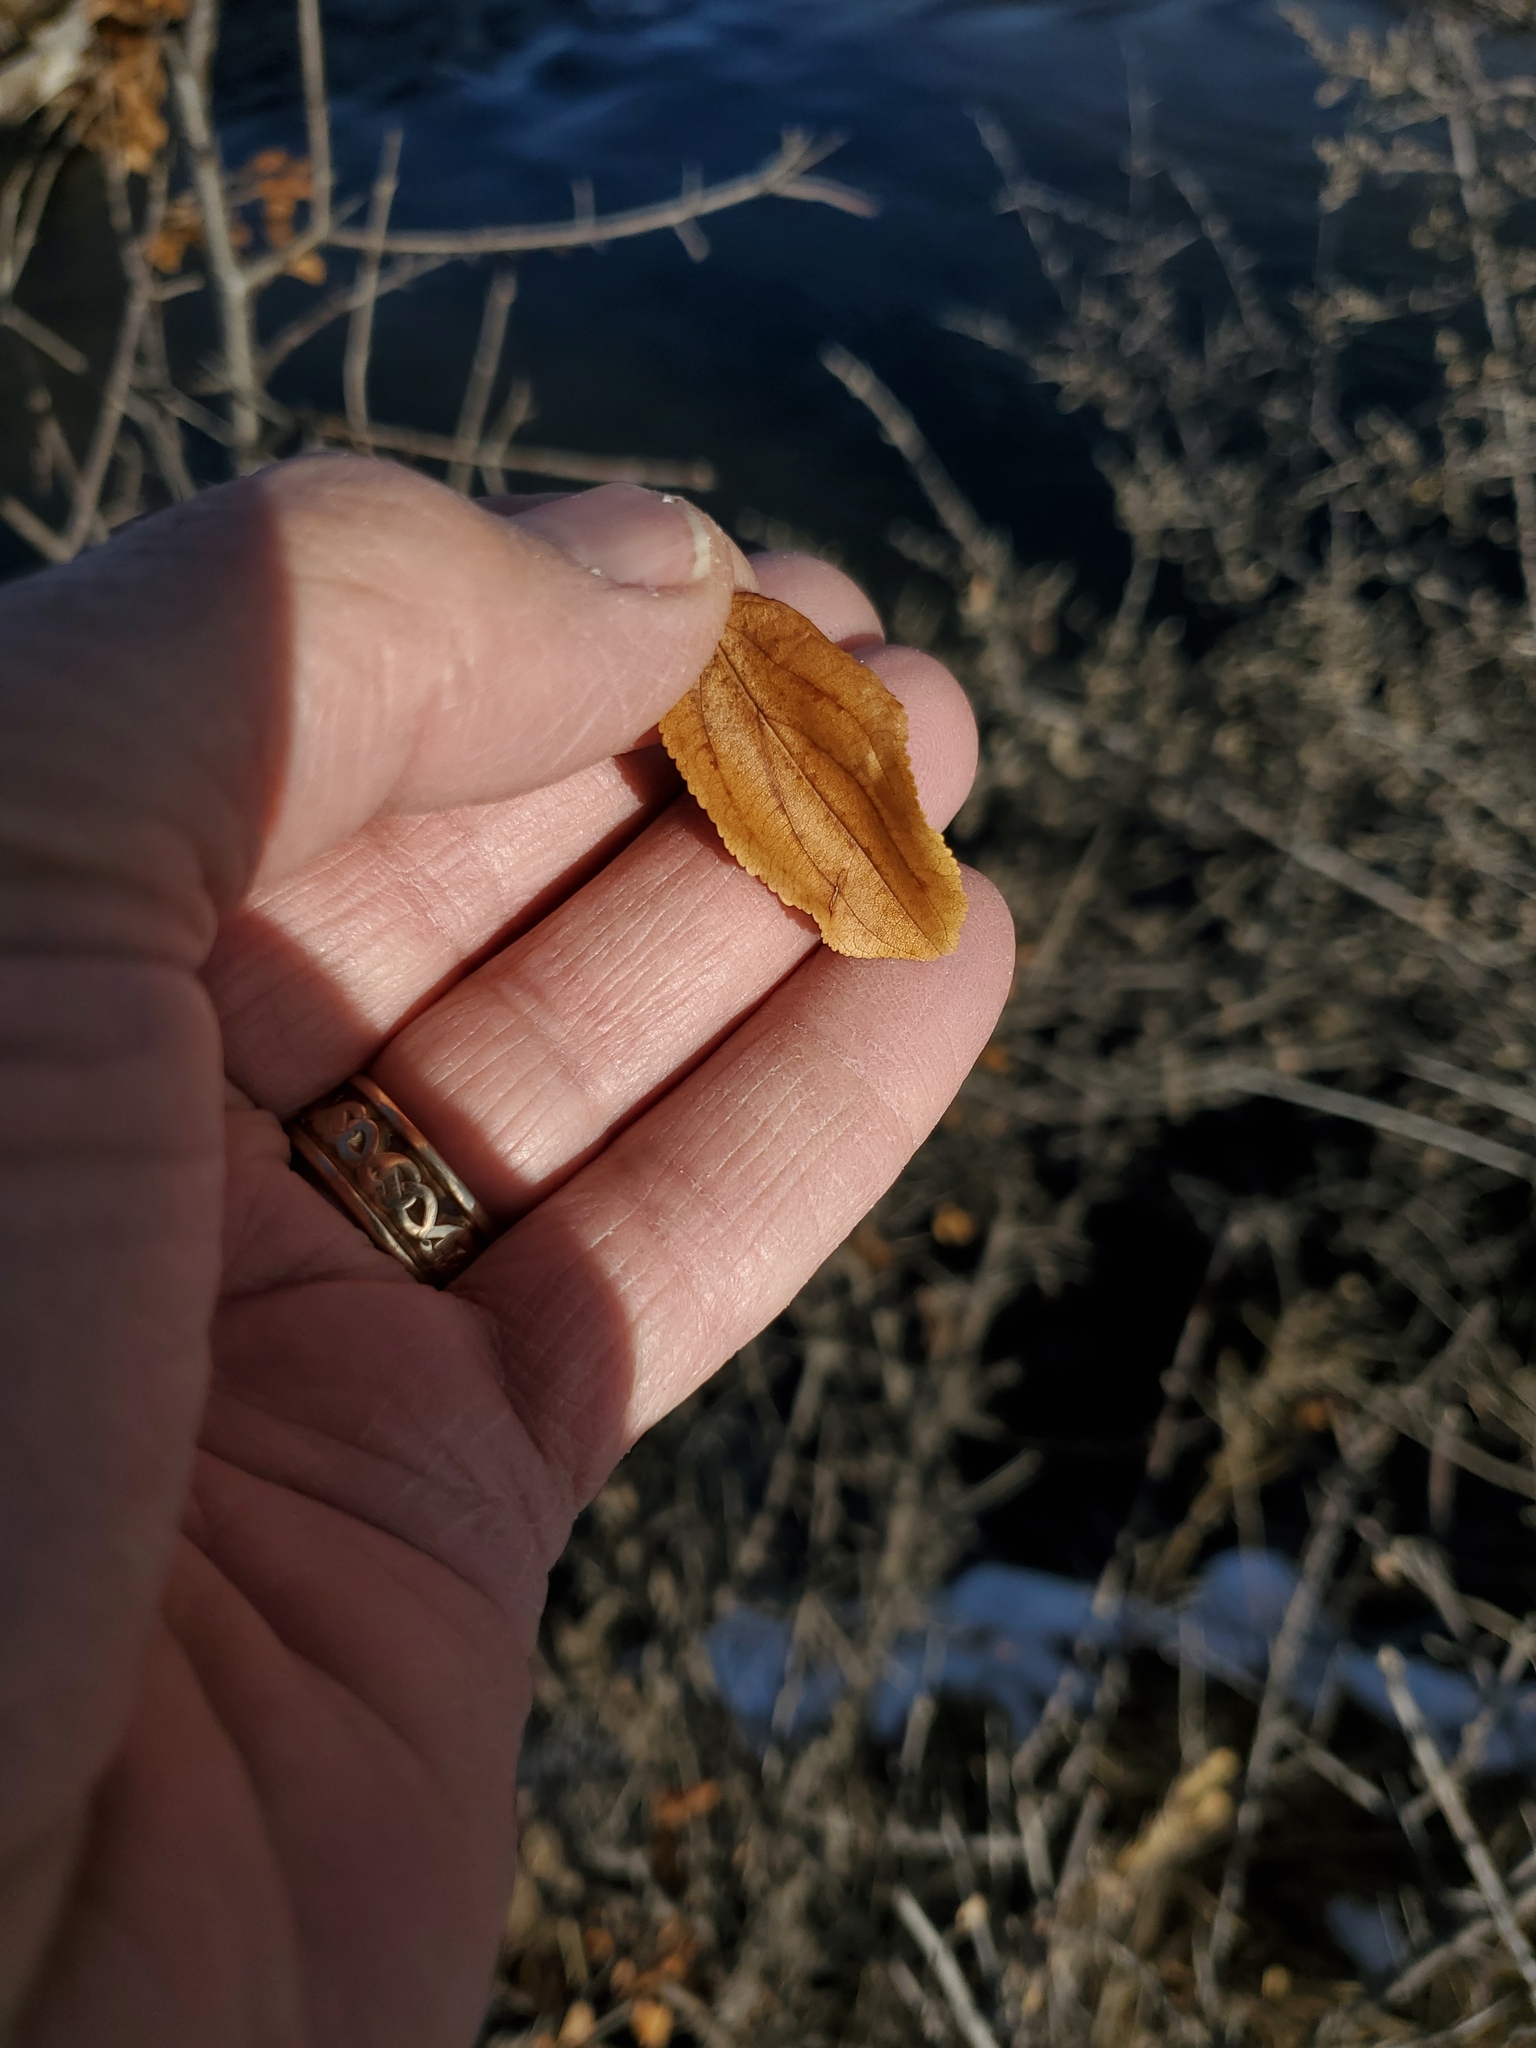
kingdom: Plantae
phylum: Tracheophyta
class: Magnoliopsida
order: Rosales
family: Elaeagnaceae
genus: Shepherdia
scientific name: Shepherdia argentea
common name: Silver buffaloberry
